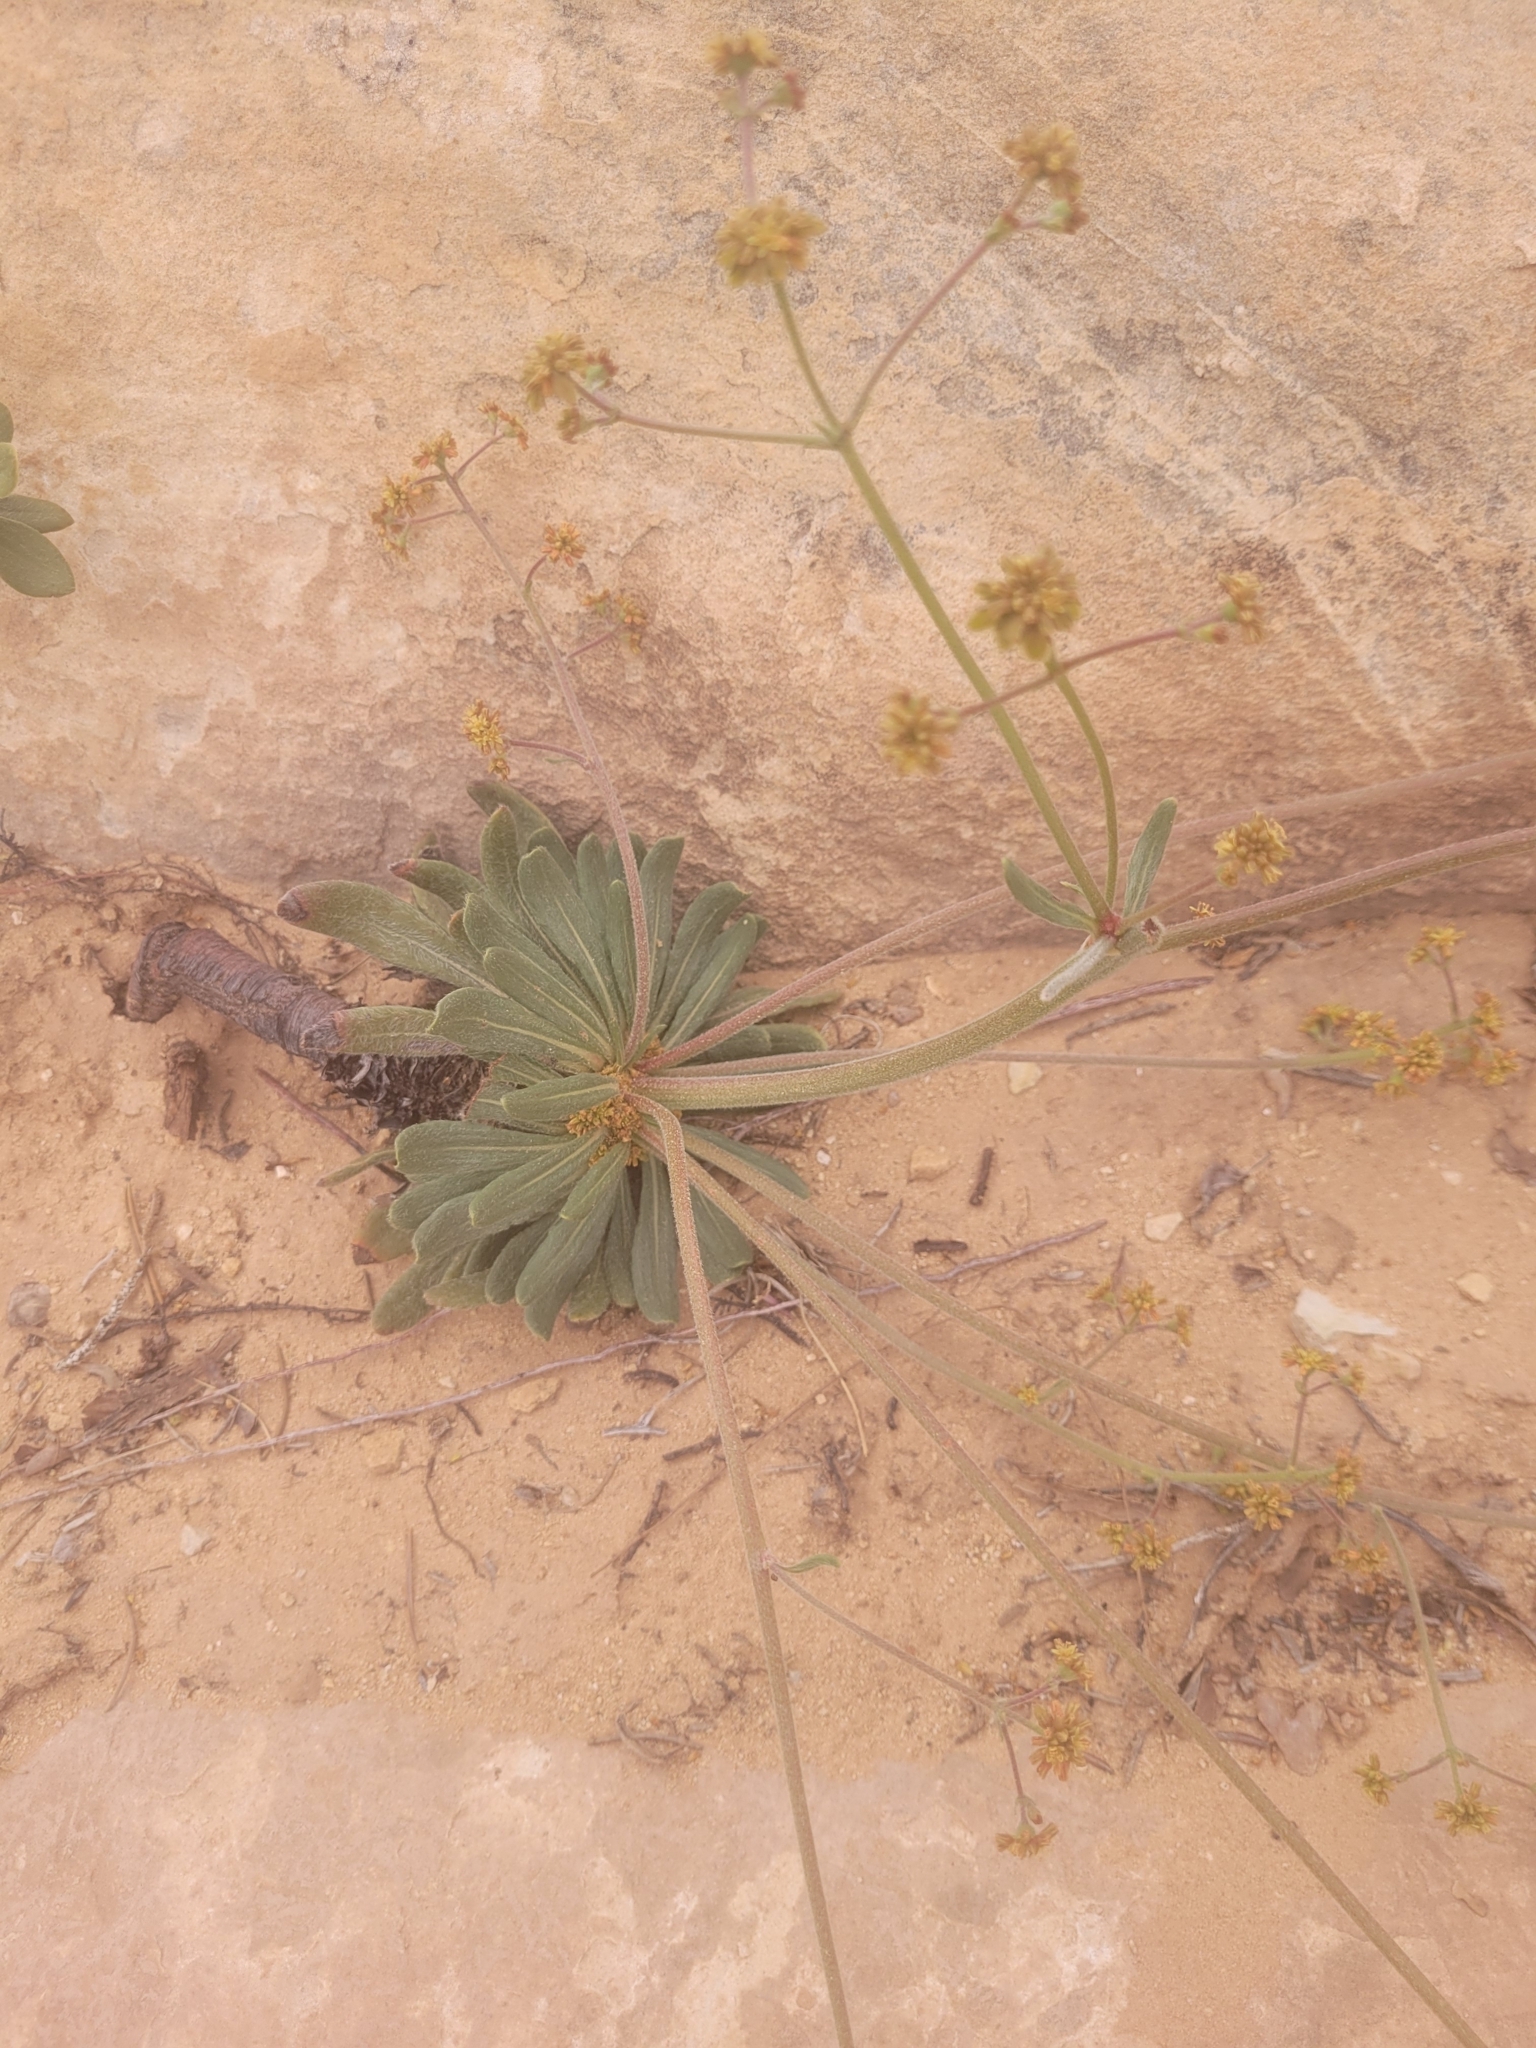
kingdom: Plantae
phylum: Tracheophyta
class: Magnoliopsida
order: Caryophyllales
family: Polygonaceae
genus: Eriogonum
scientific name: Eriogonum alatum
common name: Winged eriogonum
